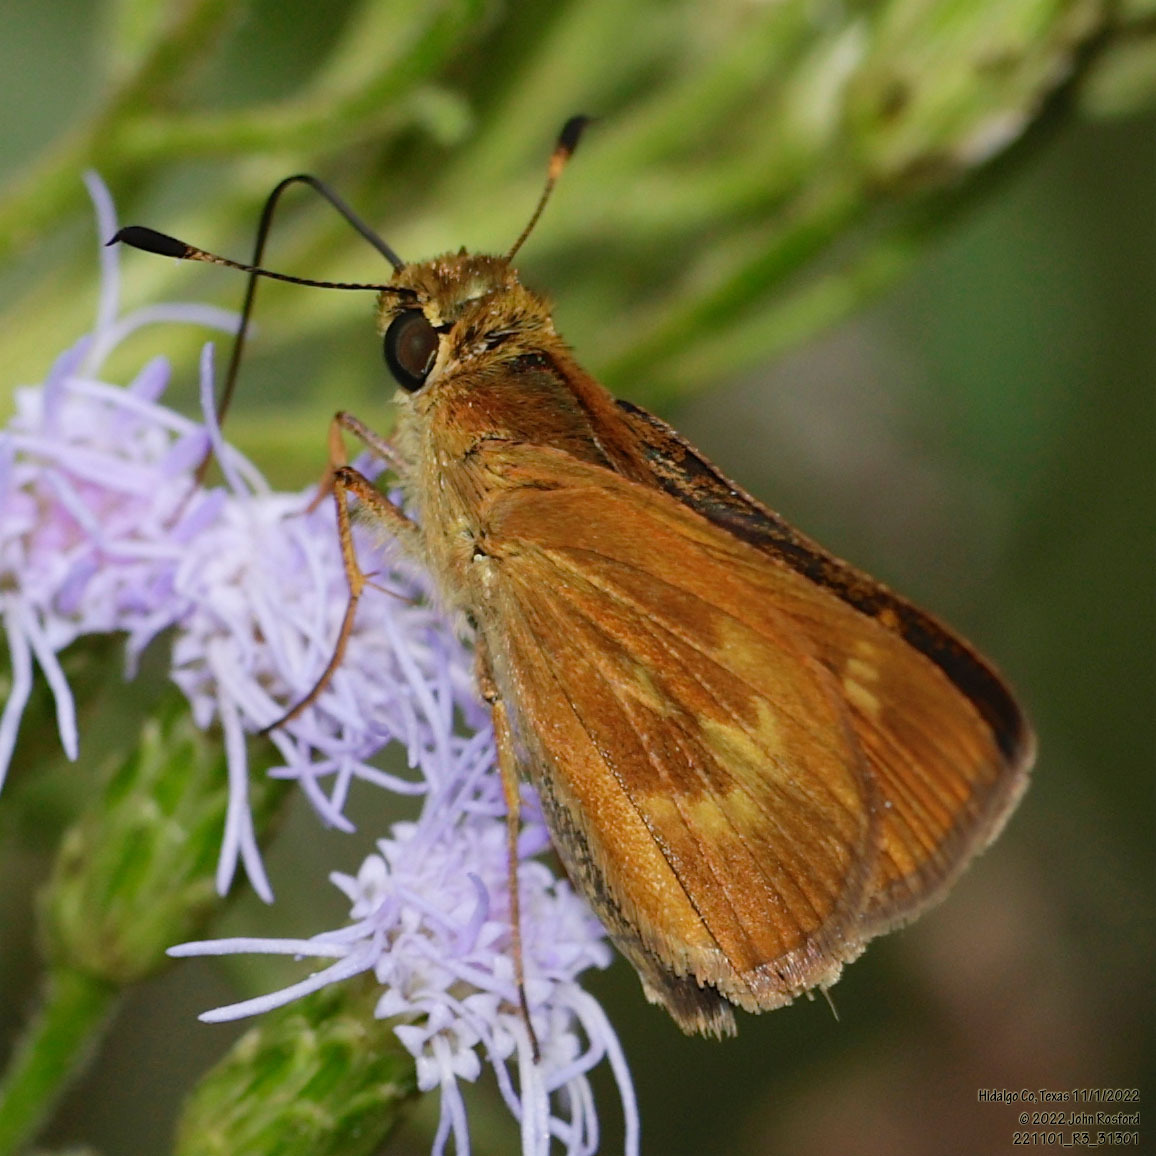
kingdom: Animalia
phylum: Arthropoda
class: Insecta
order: Lepidoptera
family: Hesperiidae
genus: Polites
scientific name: Polites otho
